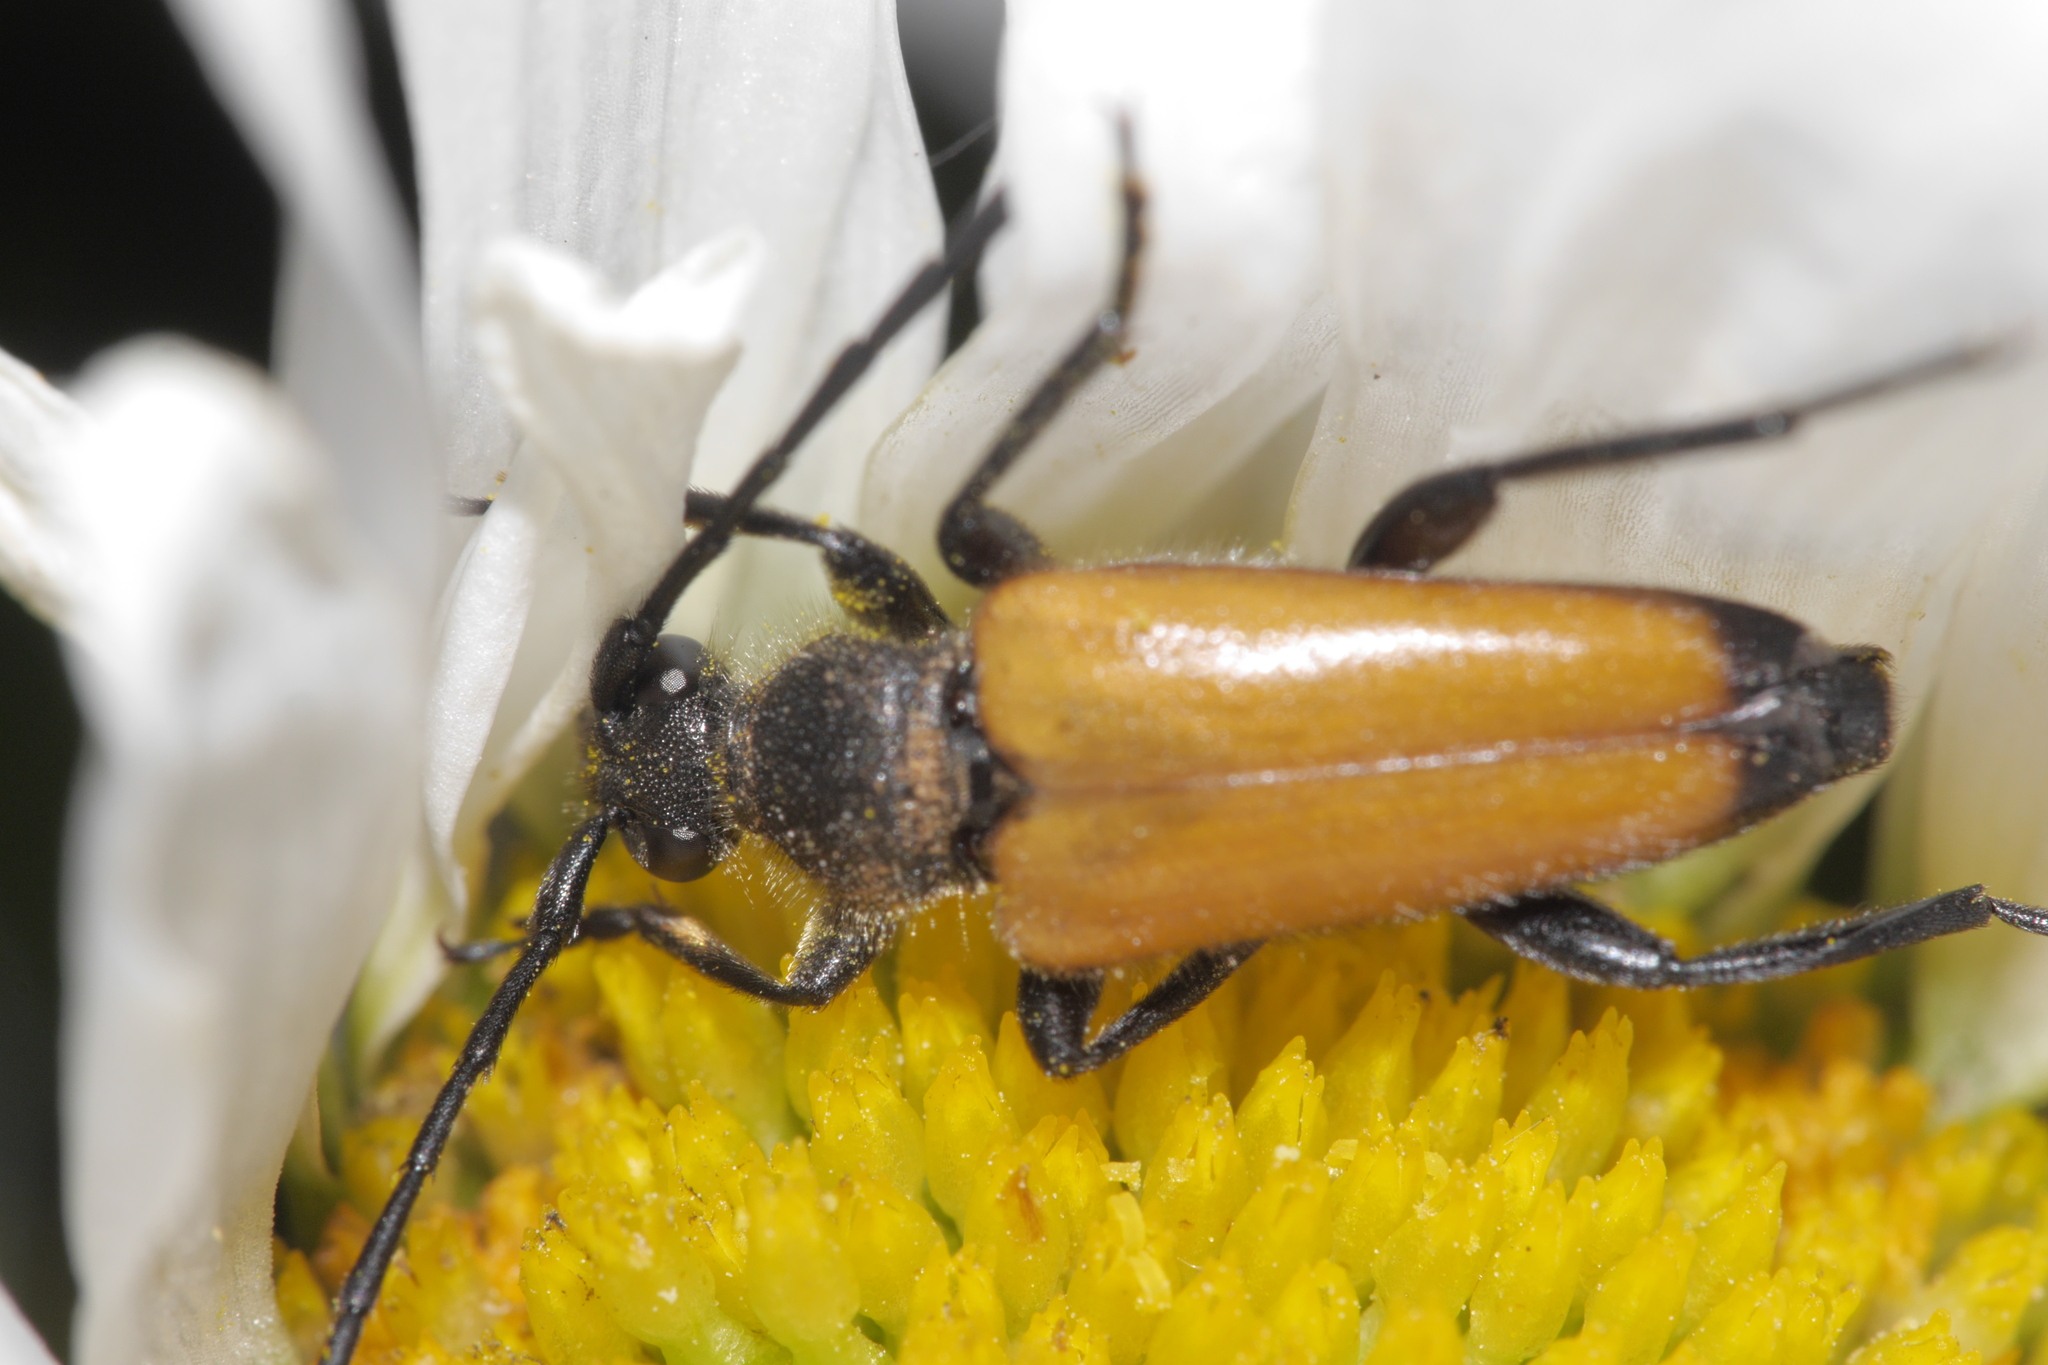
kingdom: Animalia
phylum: Arthropoda
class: Insecta
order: Coleoptera
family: Cerambycidae
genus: Paracorymbia
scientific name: Paracorymbia fulva
